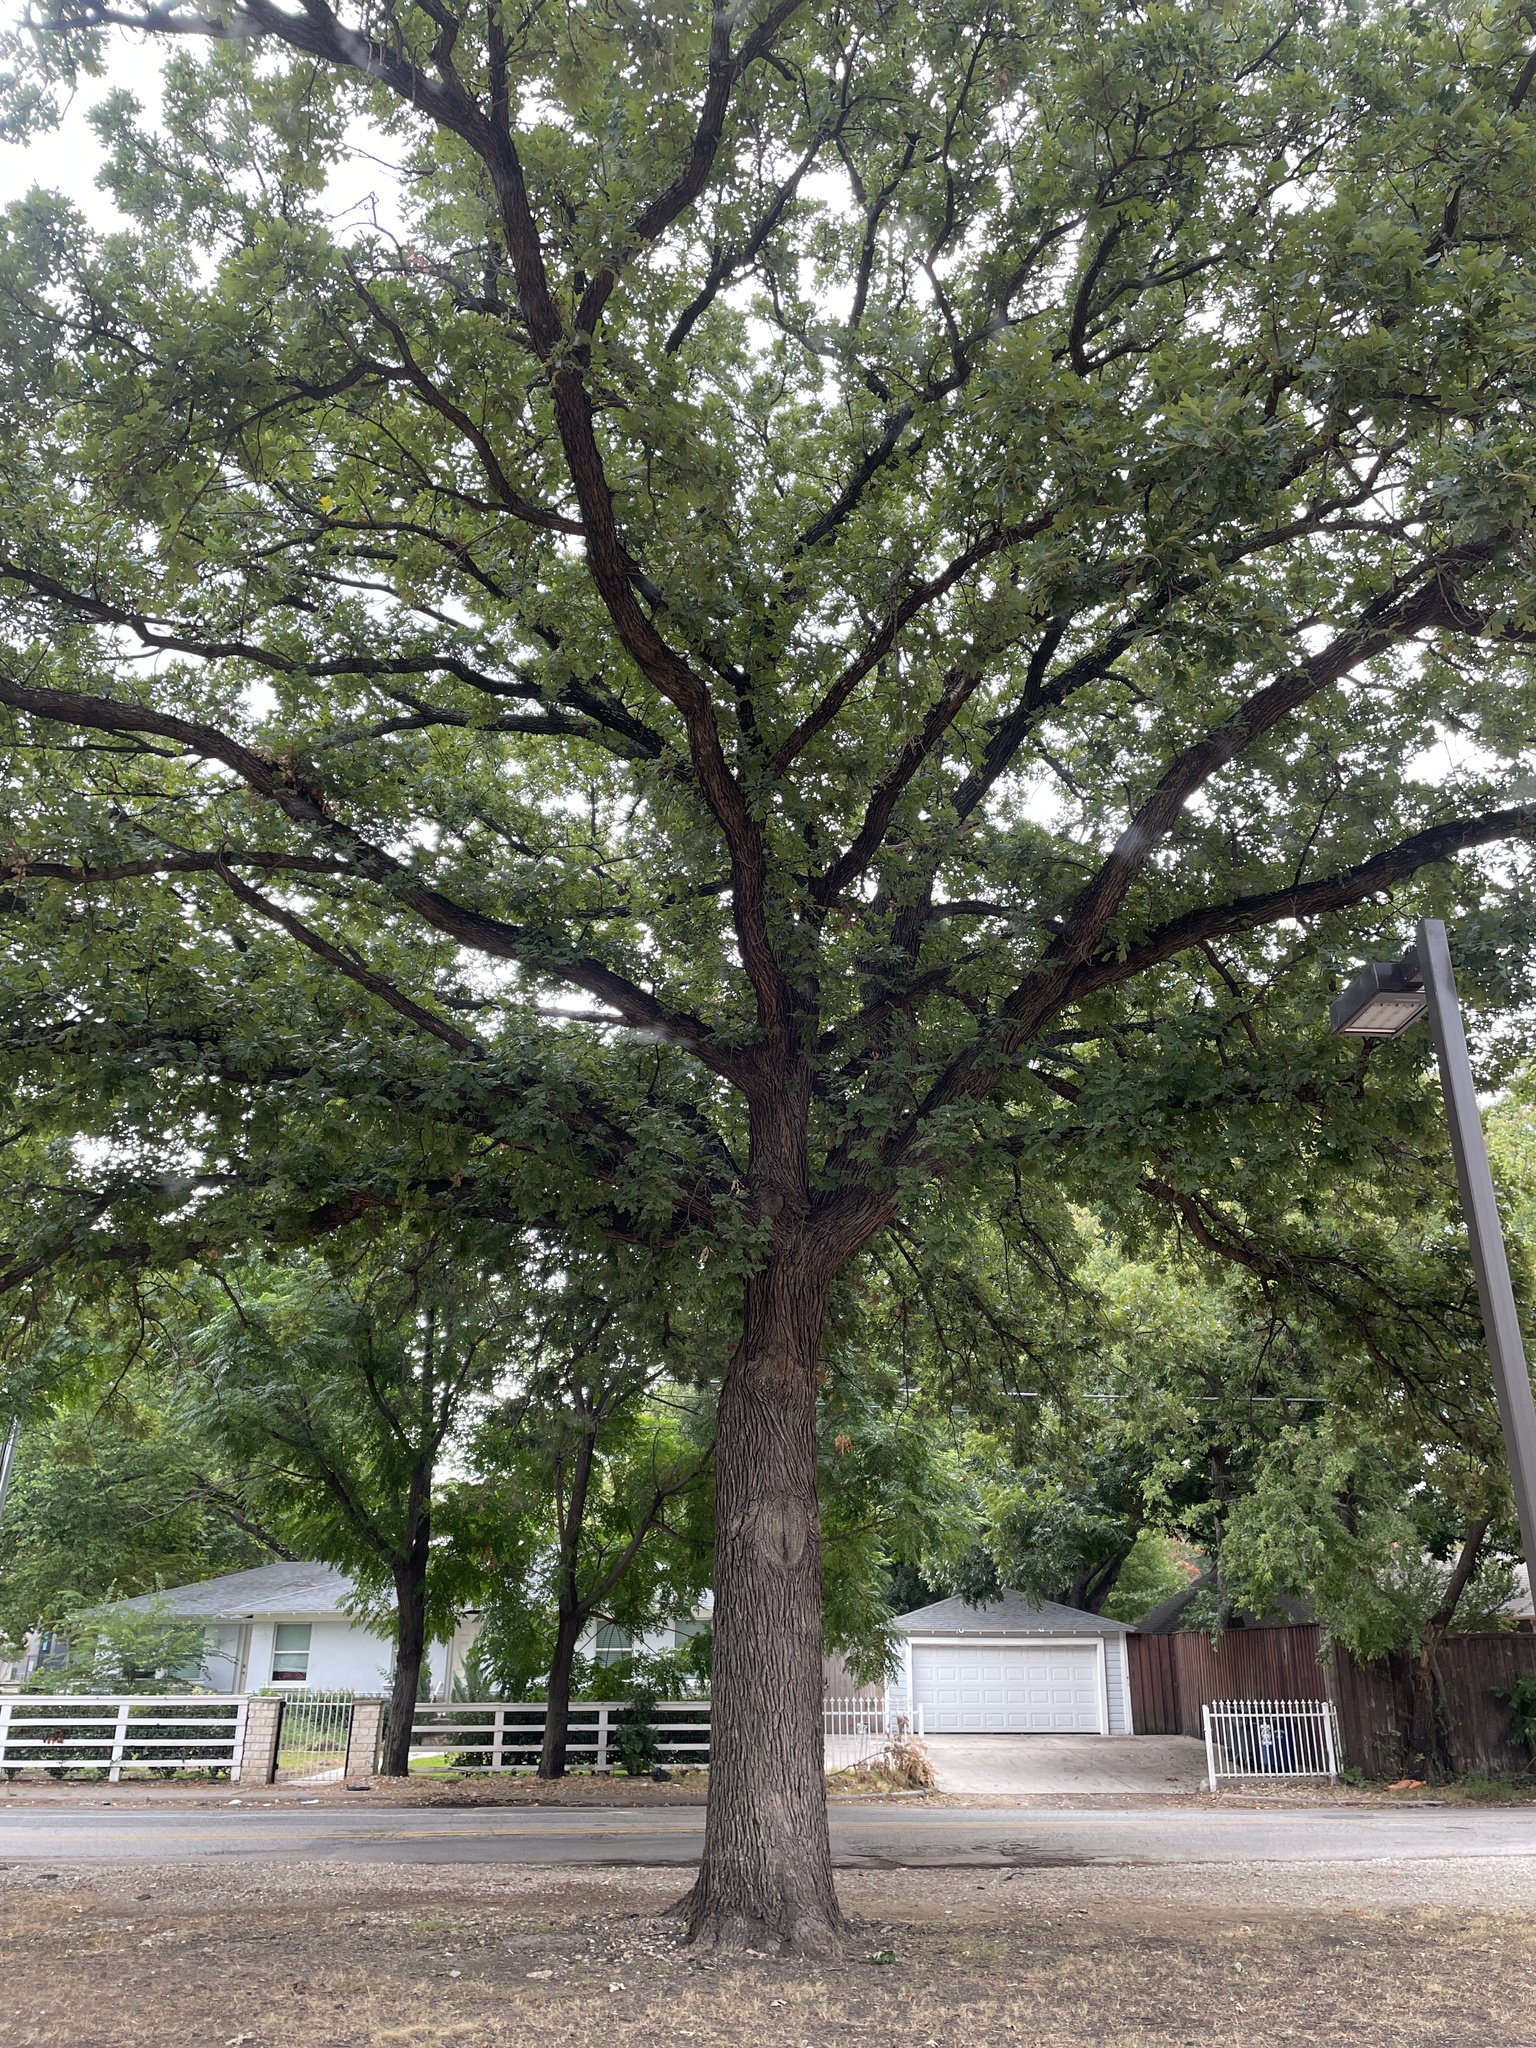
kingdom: Plantae
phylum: Tracheophyta
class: Magnoliopsida
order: Fagales
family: Fagaceae
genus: Quercus
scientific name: Quercus macrocarpa
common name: Bur oak
